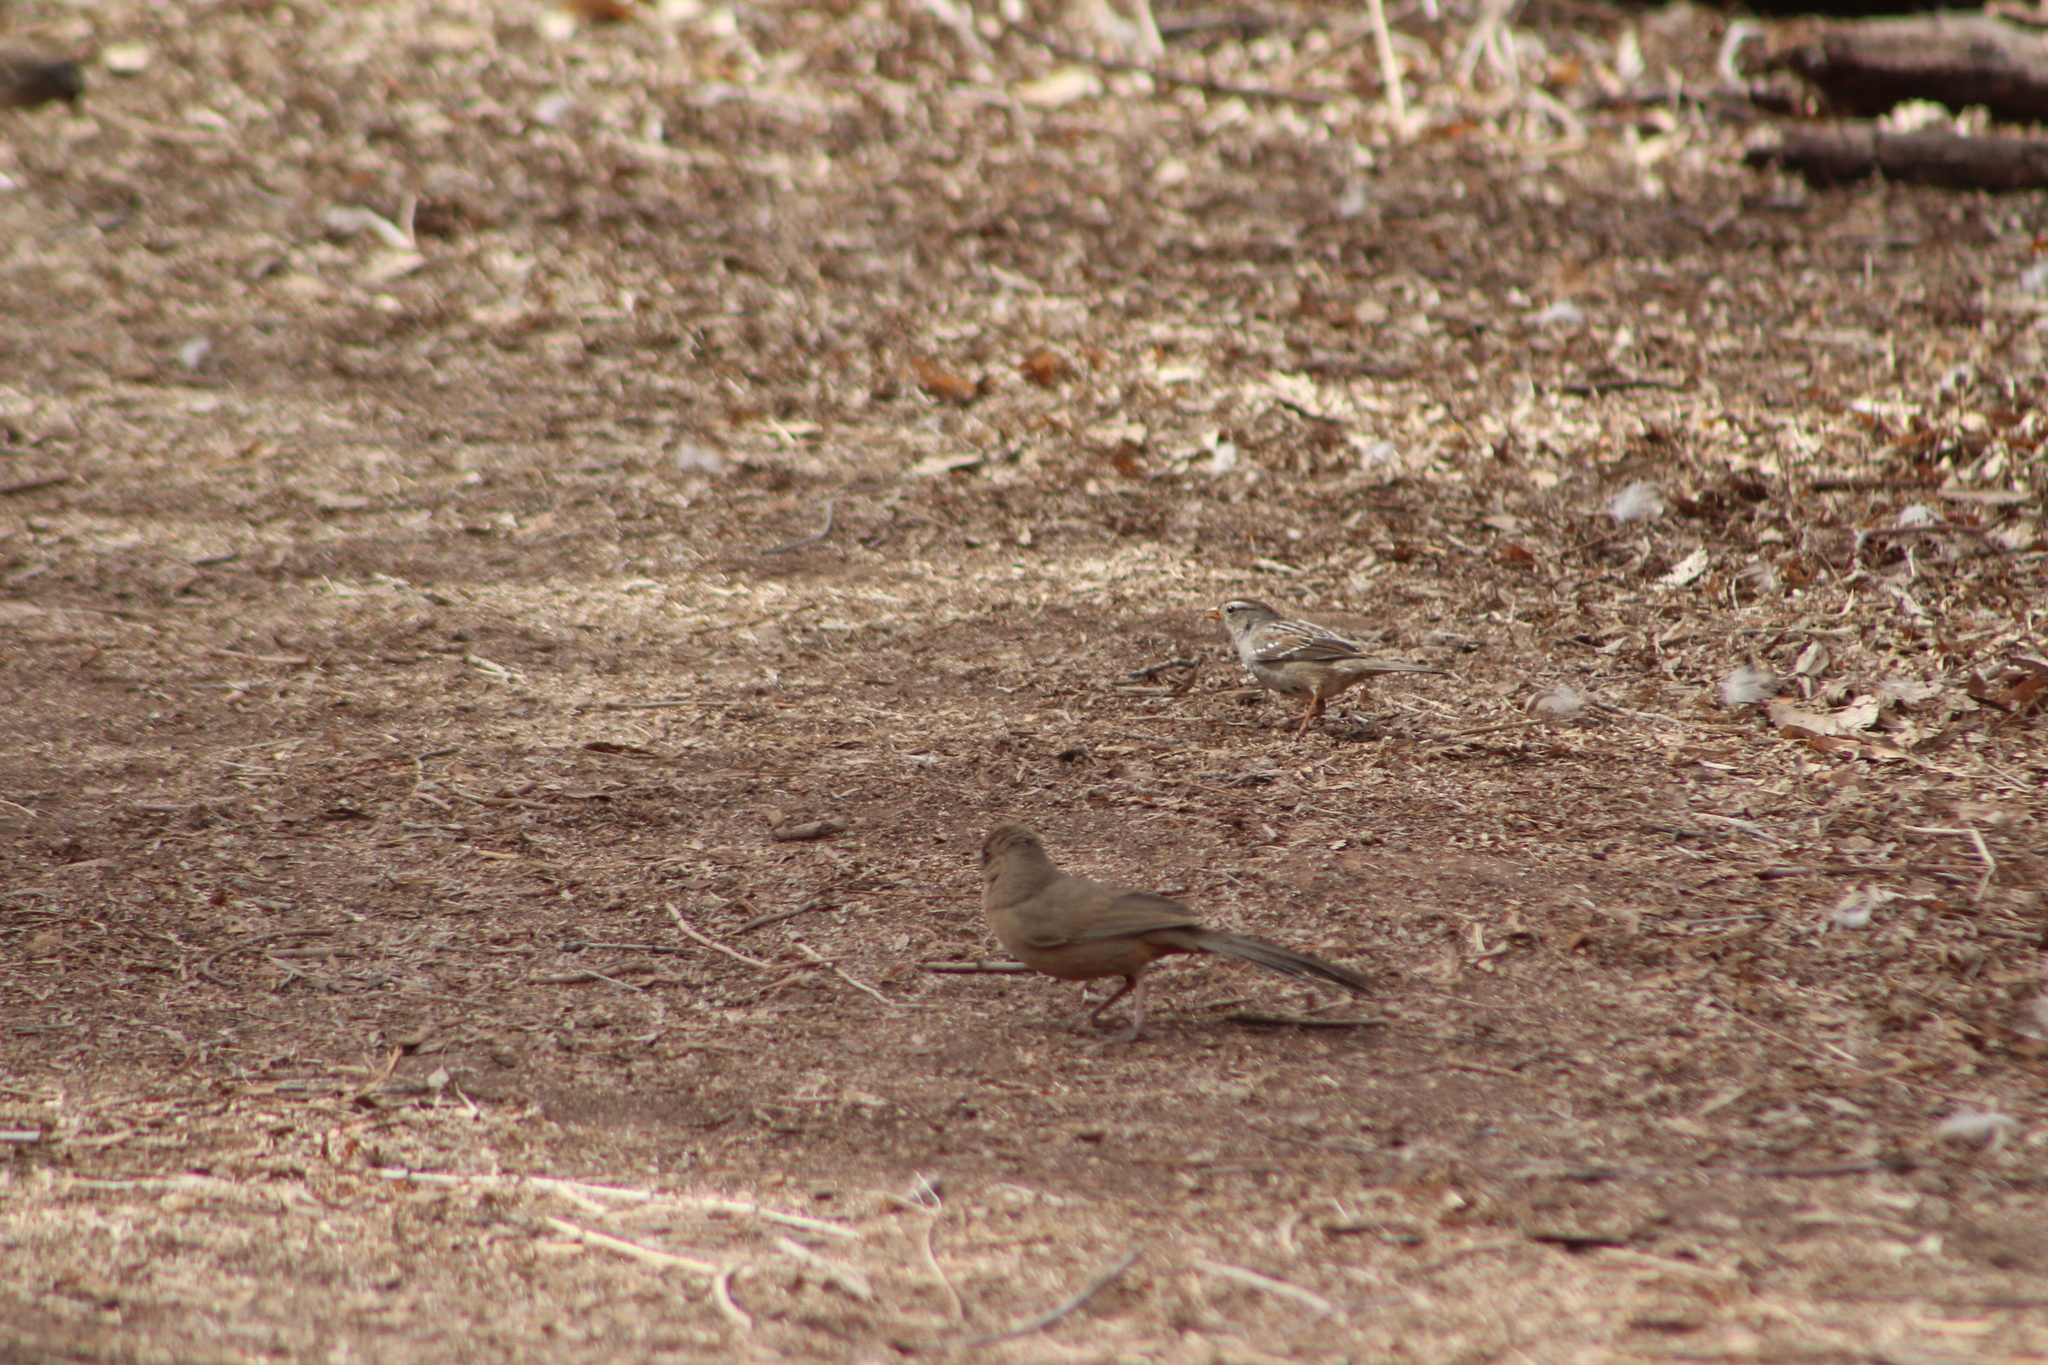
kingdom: Animalia
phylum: Chordata
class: Aves
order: Passeriformes
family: Passerellidae
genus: Melozone
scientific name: Melozone aberti
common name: Abert's towhee
